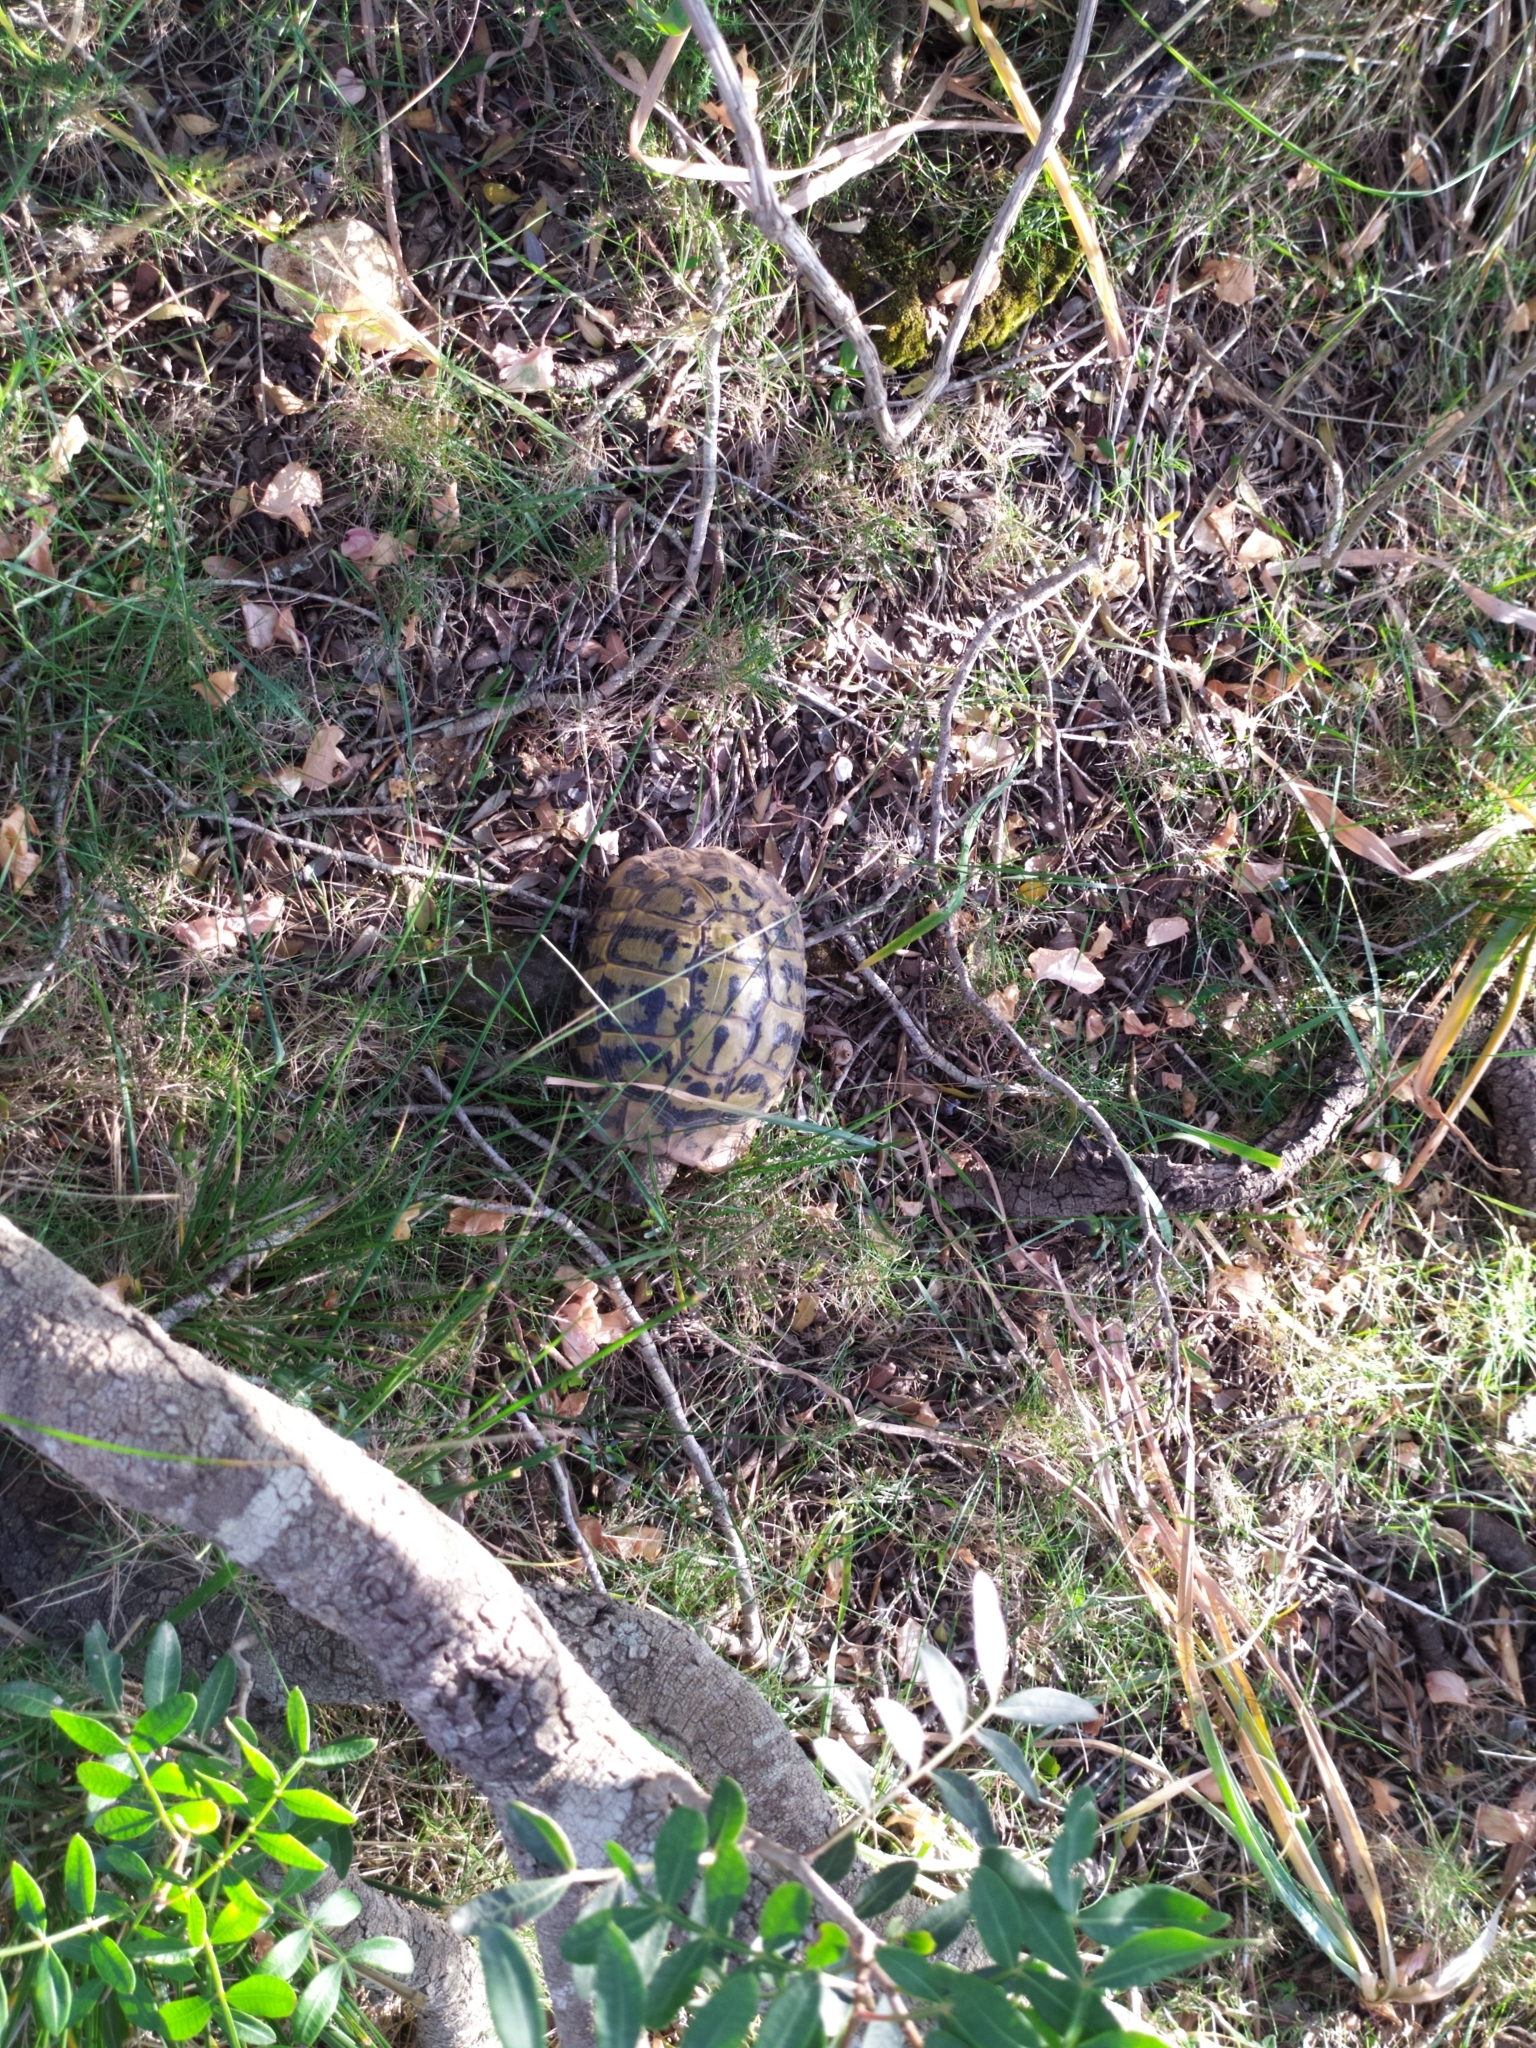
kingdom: Animalia
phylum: Chordata
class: Testudines
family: Testudinidae
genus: Testudo
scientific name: Testudo hermanni
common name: Hermann's tortoise
